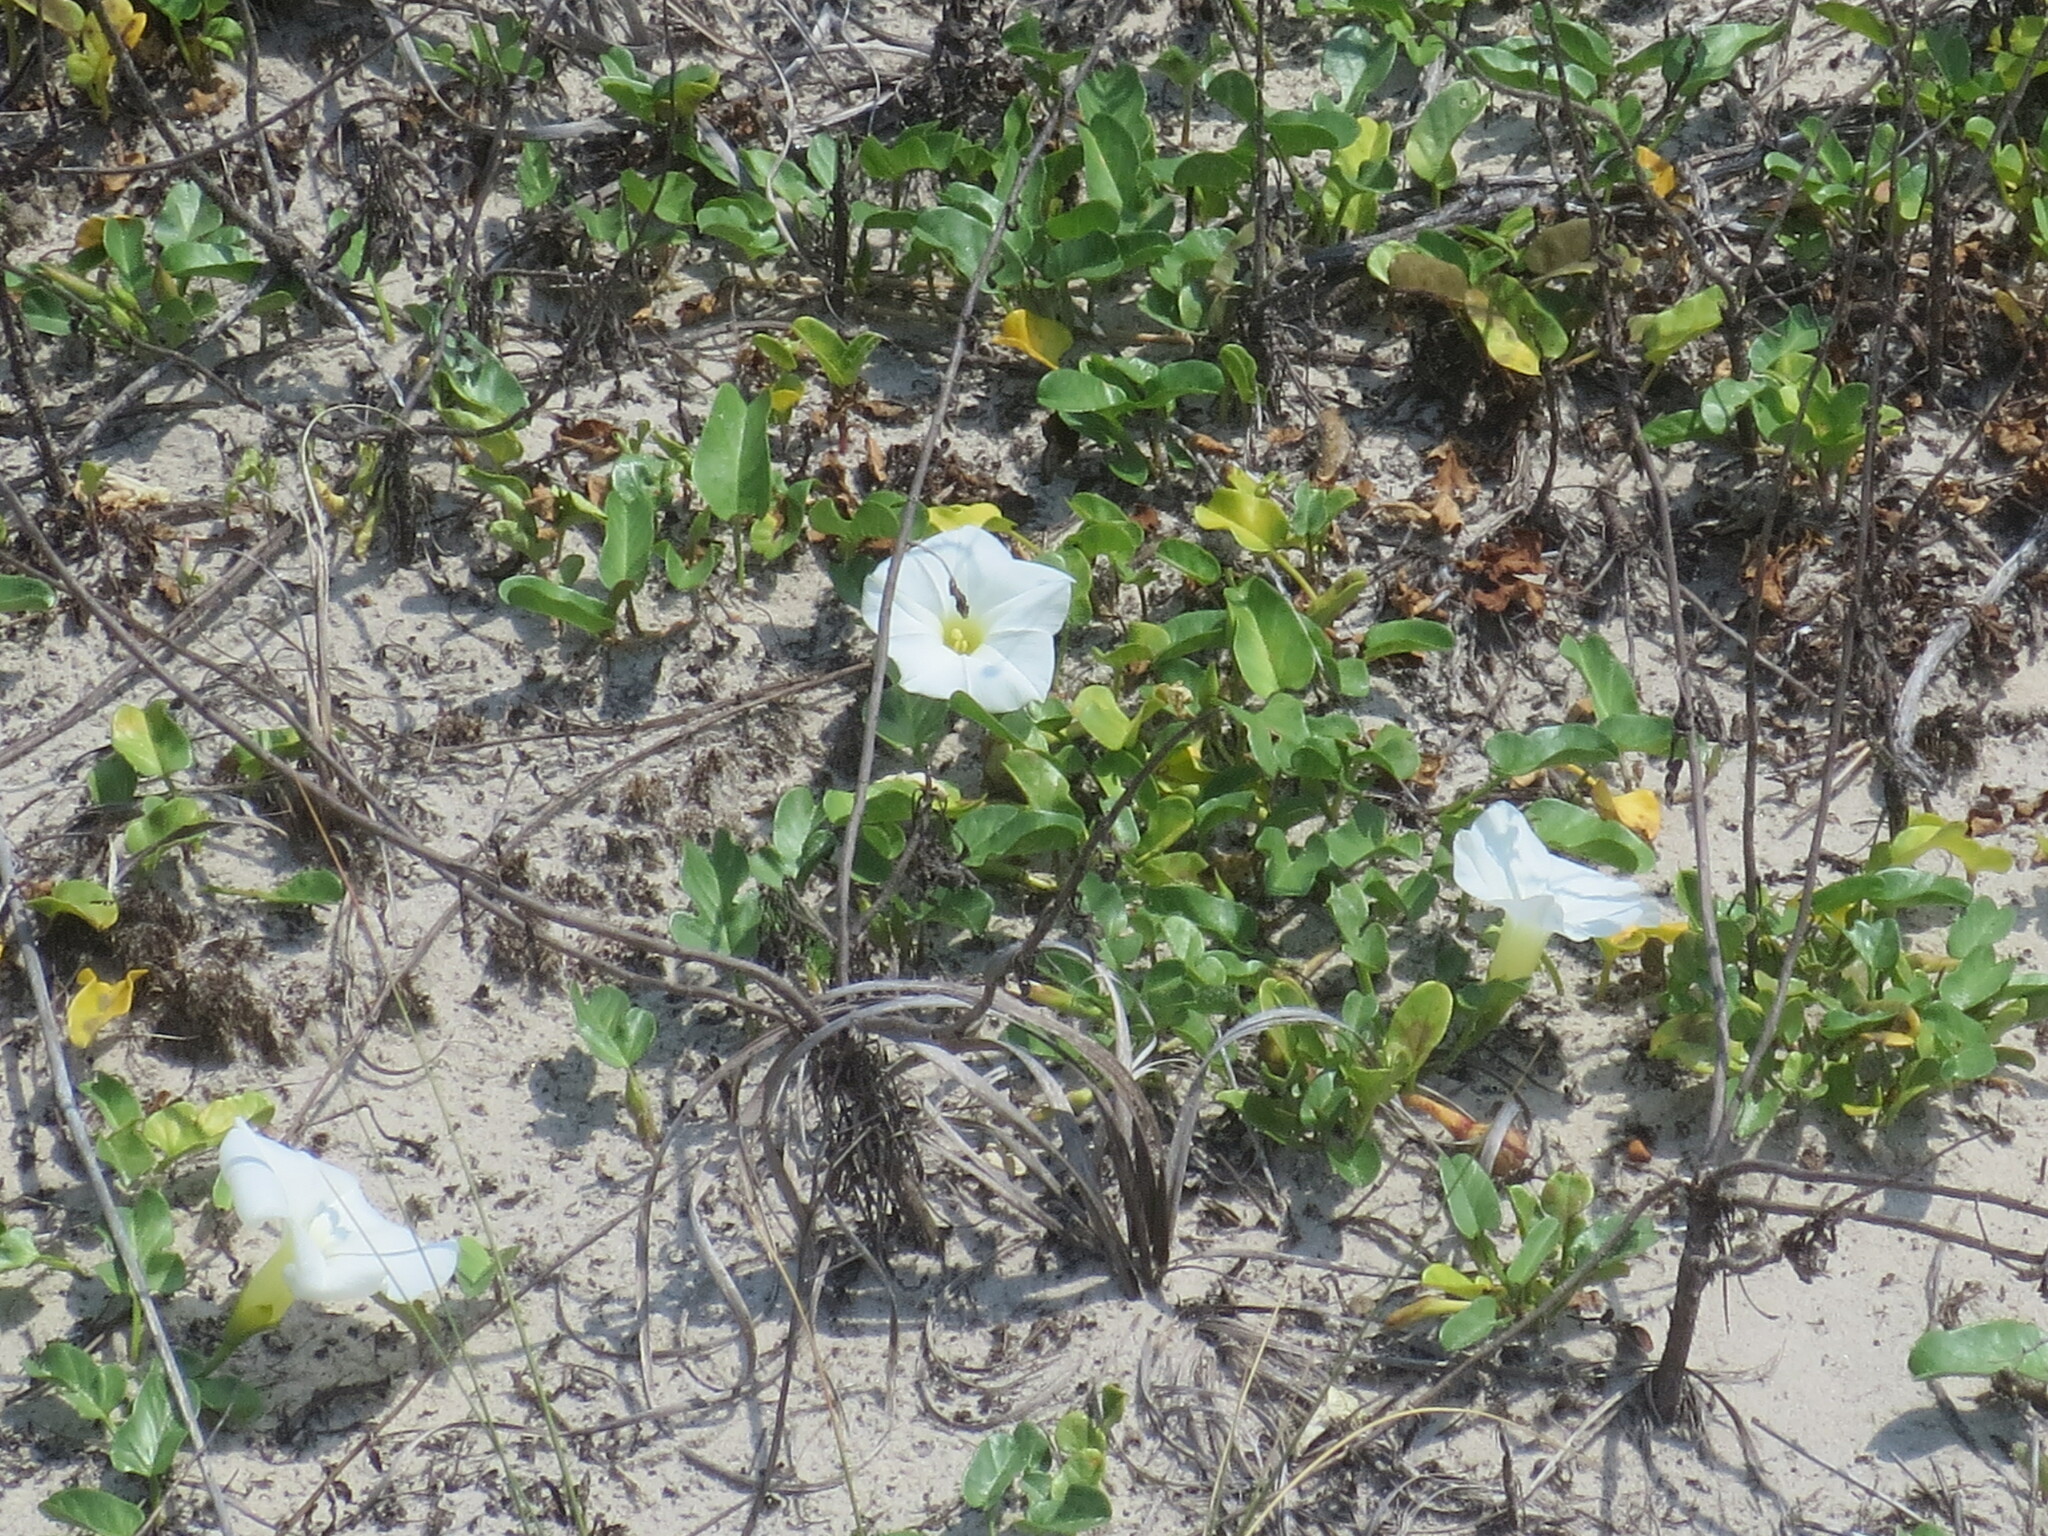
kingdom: Plantae
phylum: Tracheophyta
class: Magnoliopsida
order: Solanales
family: Convolvulaceae
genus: Ipomoea
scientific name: Ipomoea imperati
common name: Fiddle-leaf morning-glory
